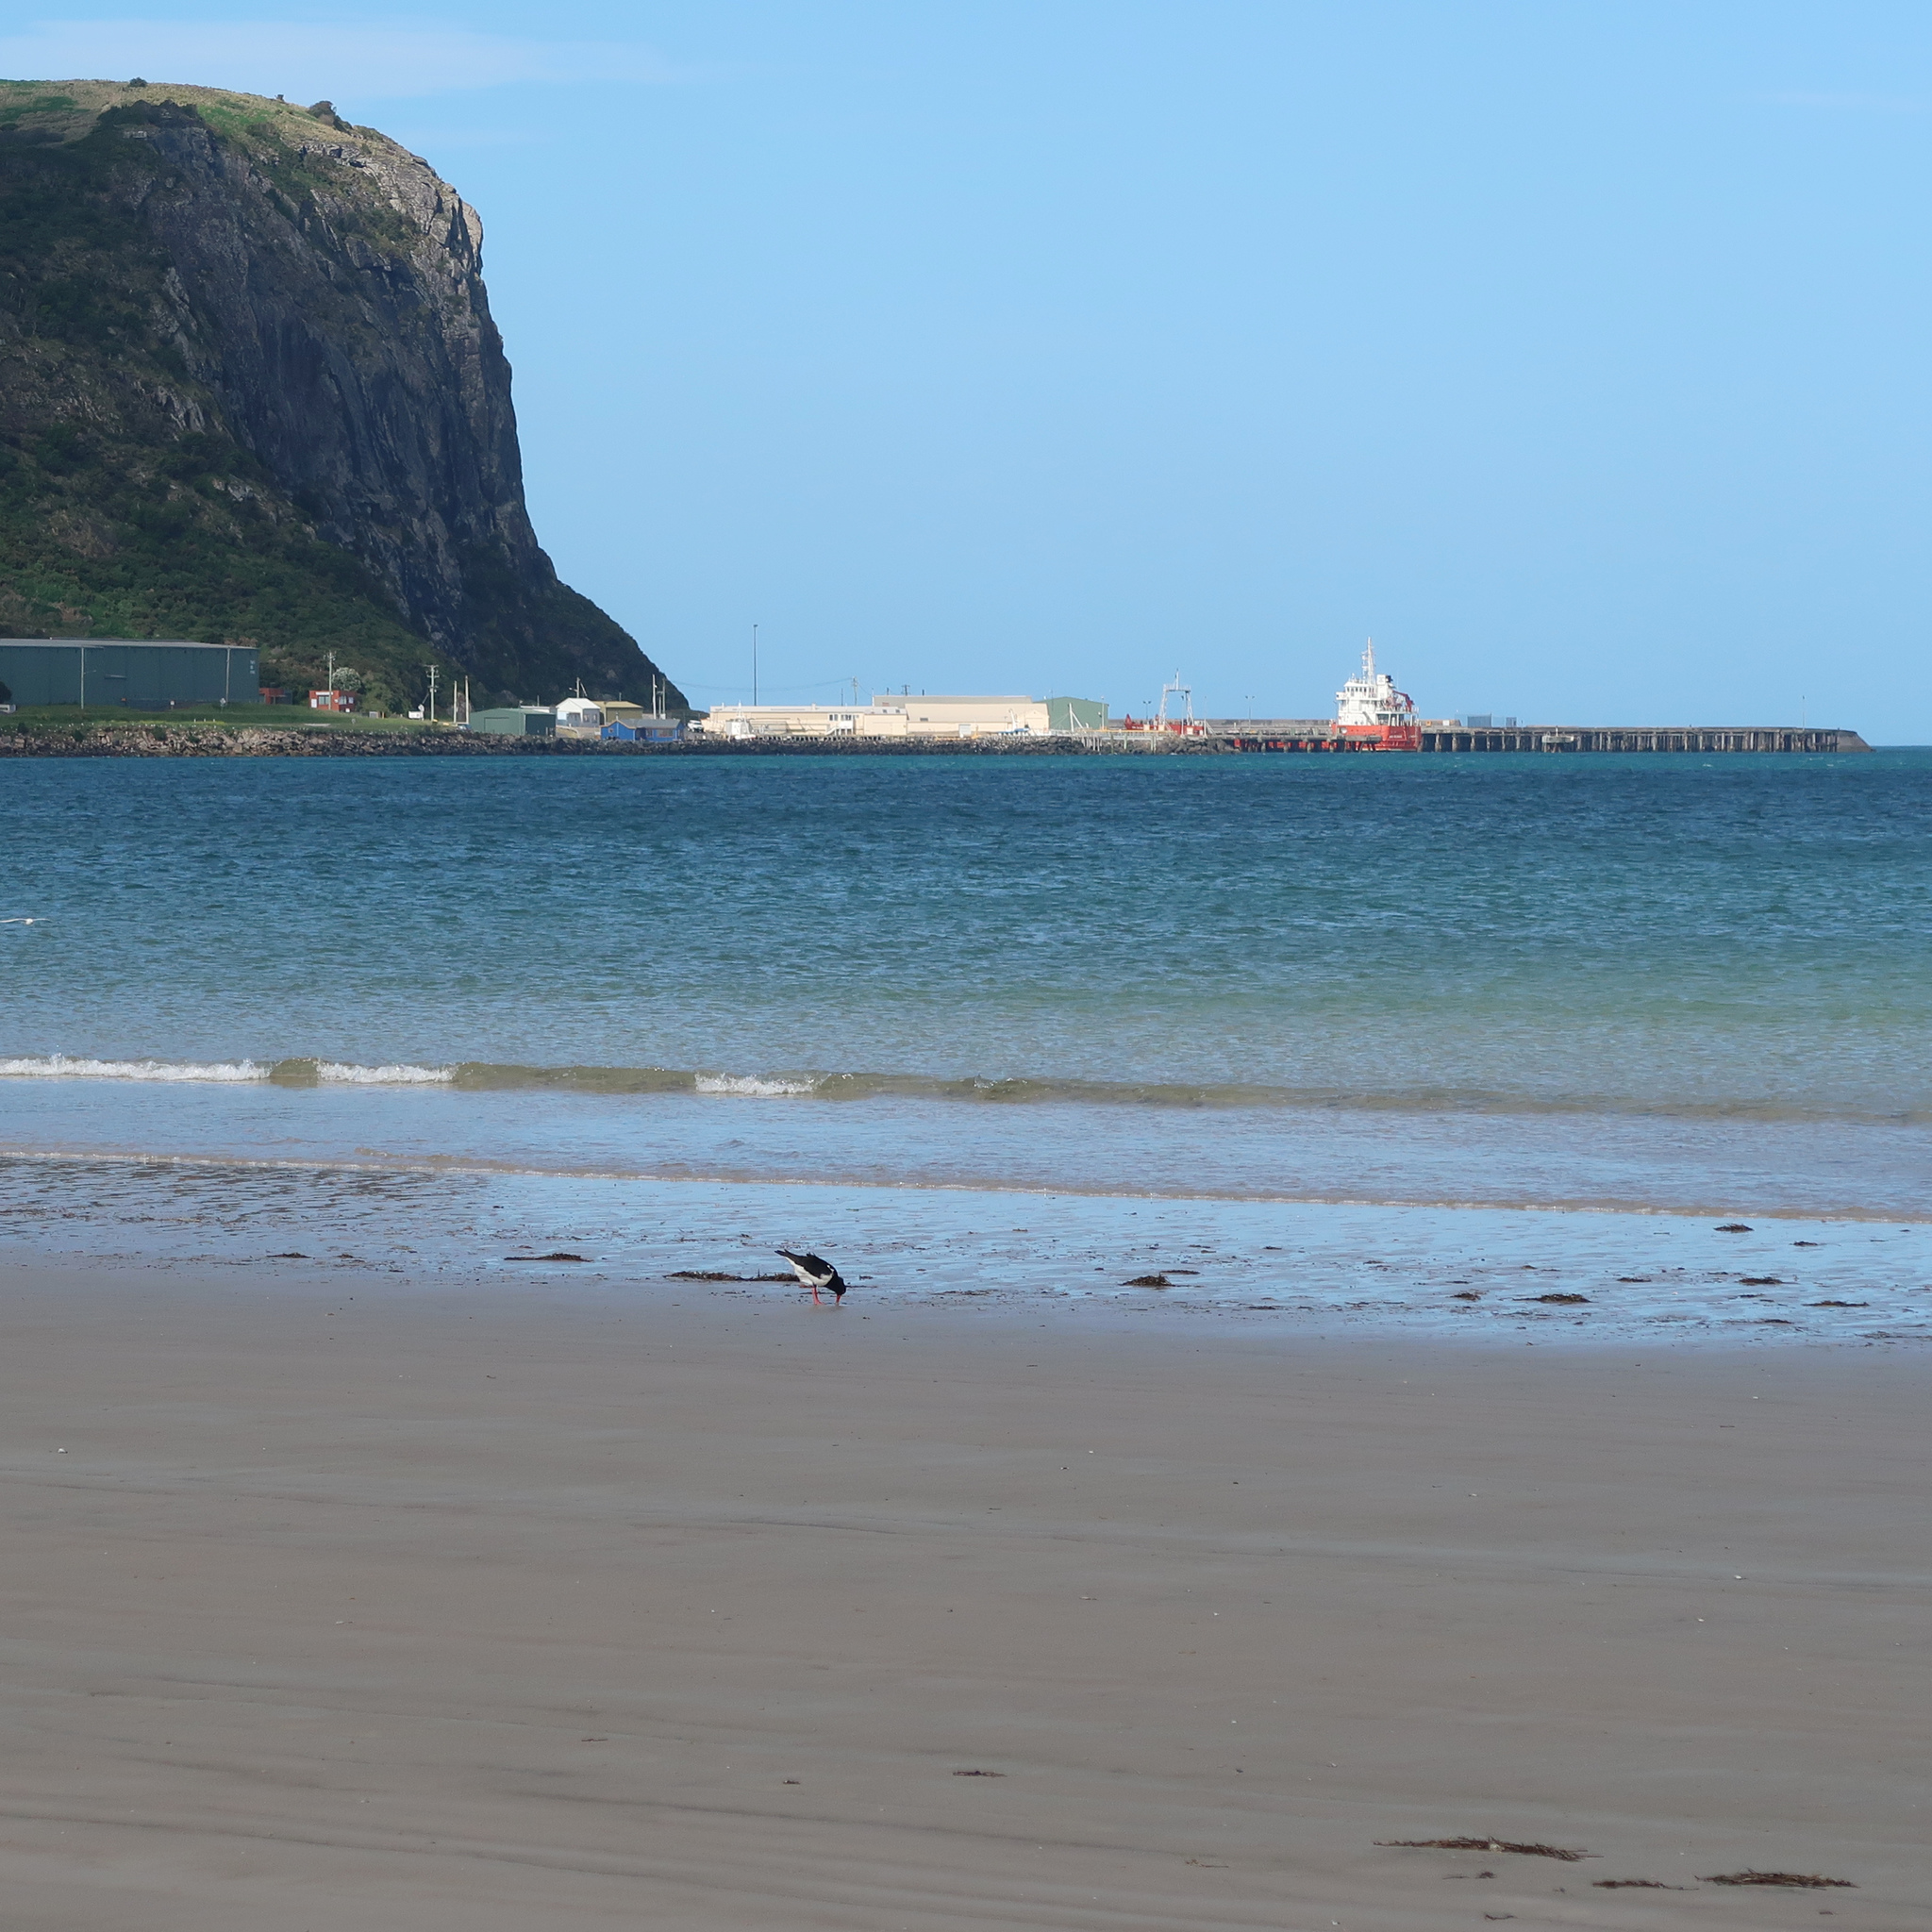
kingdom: Animalia
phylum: Chordata
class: Aves
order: Charadriiformes
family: Haematopodidae
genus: Haematopus
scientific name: Haematopus longirostris
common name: Pied oystercatcher
